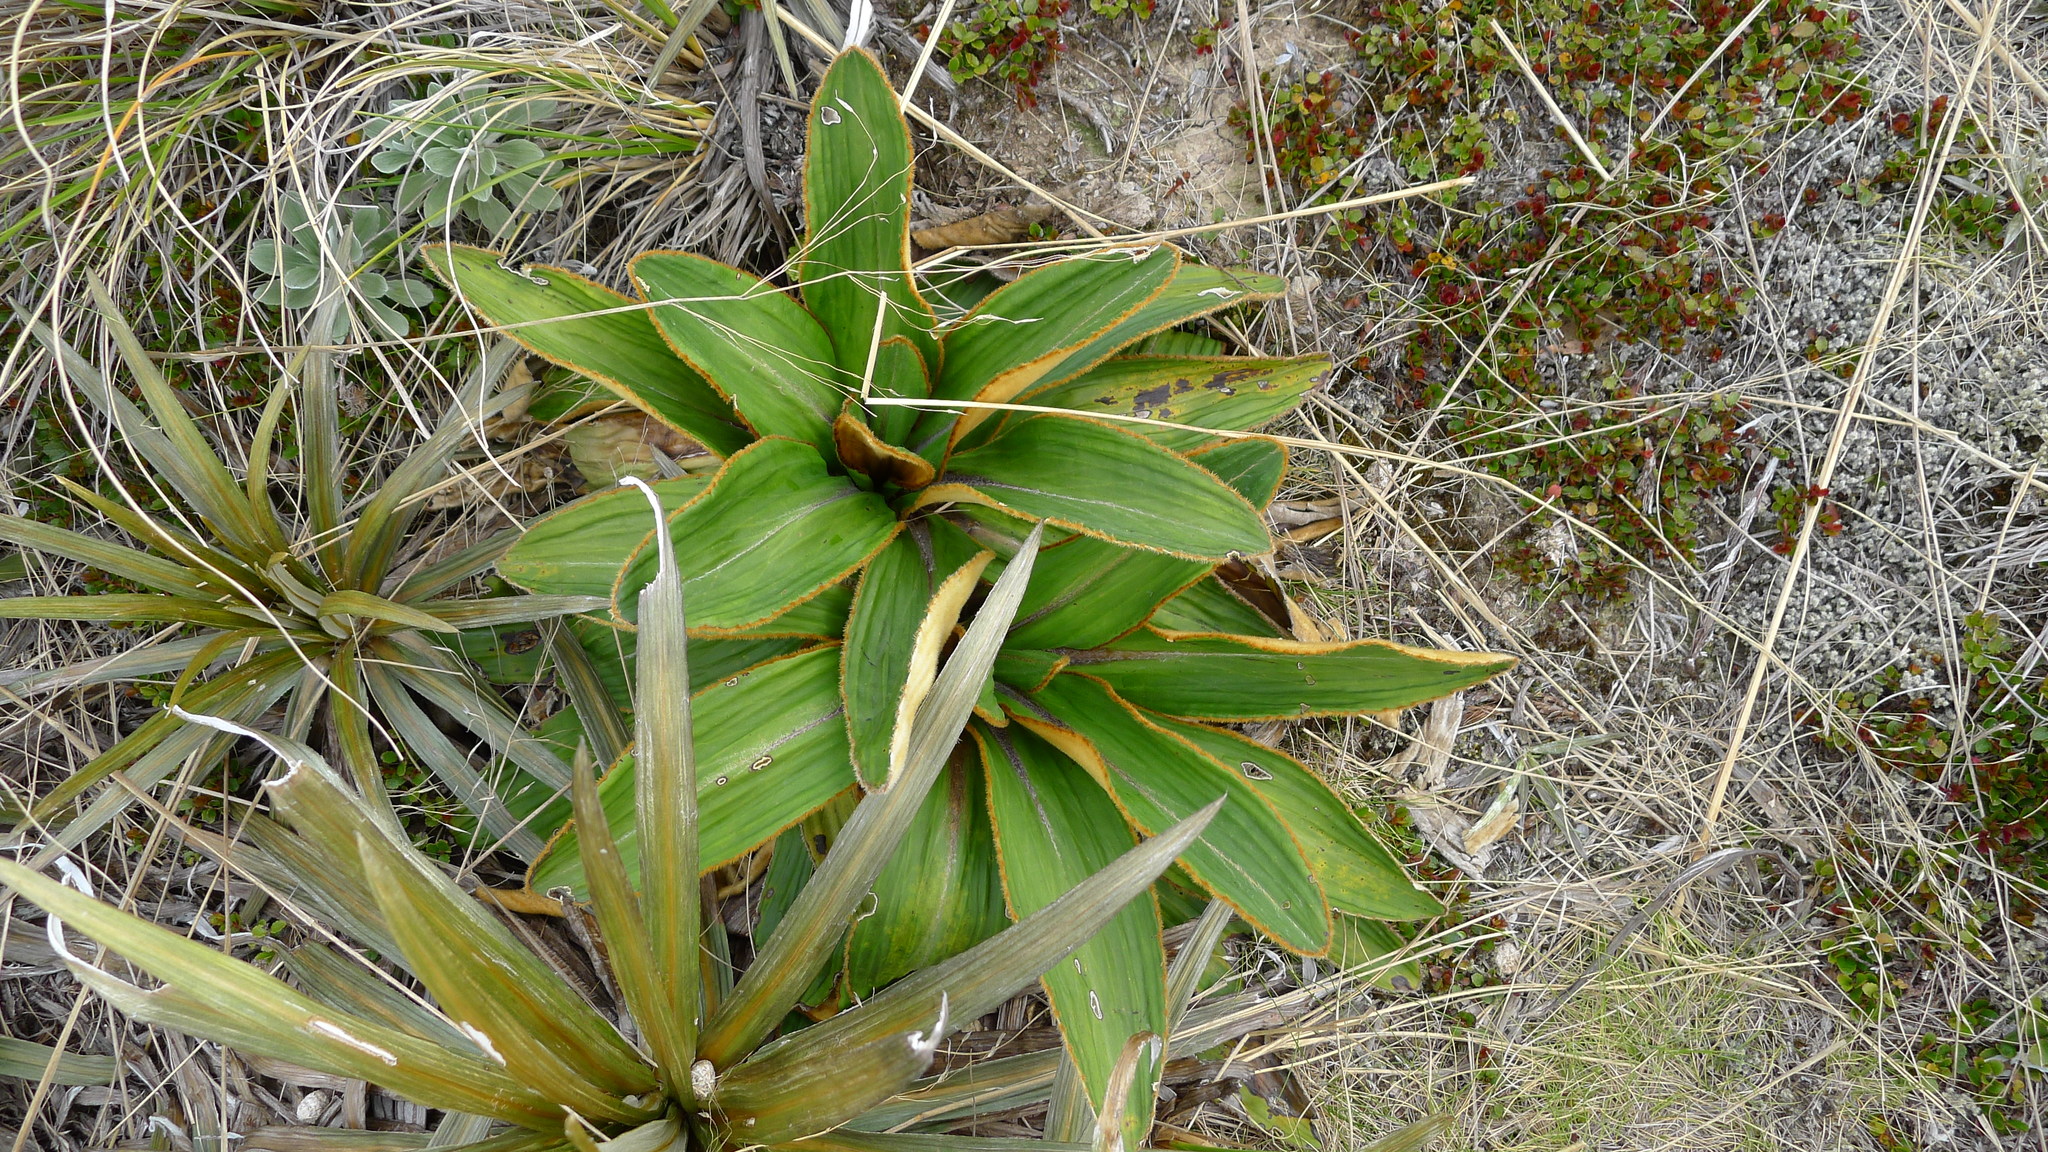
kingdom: Plantae
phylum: Tracheophyta
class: Magnoliopsida
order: Asterales
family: Asteraceae
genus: Celmisia
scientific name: Celmisia traversii
